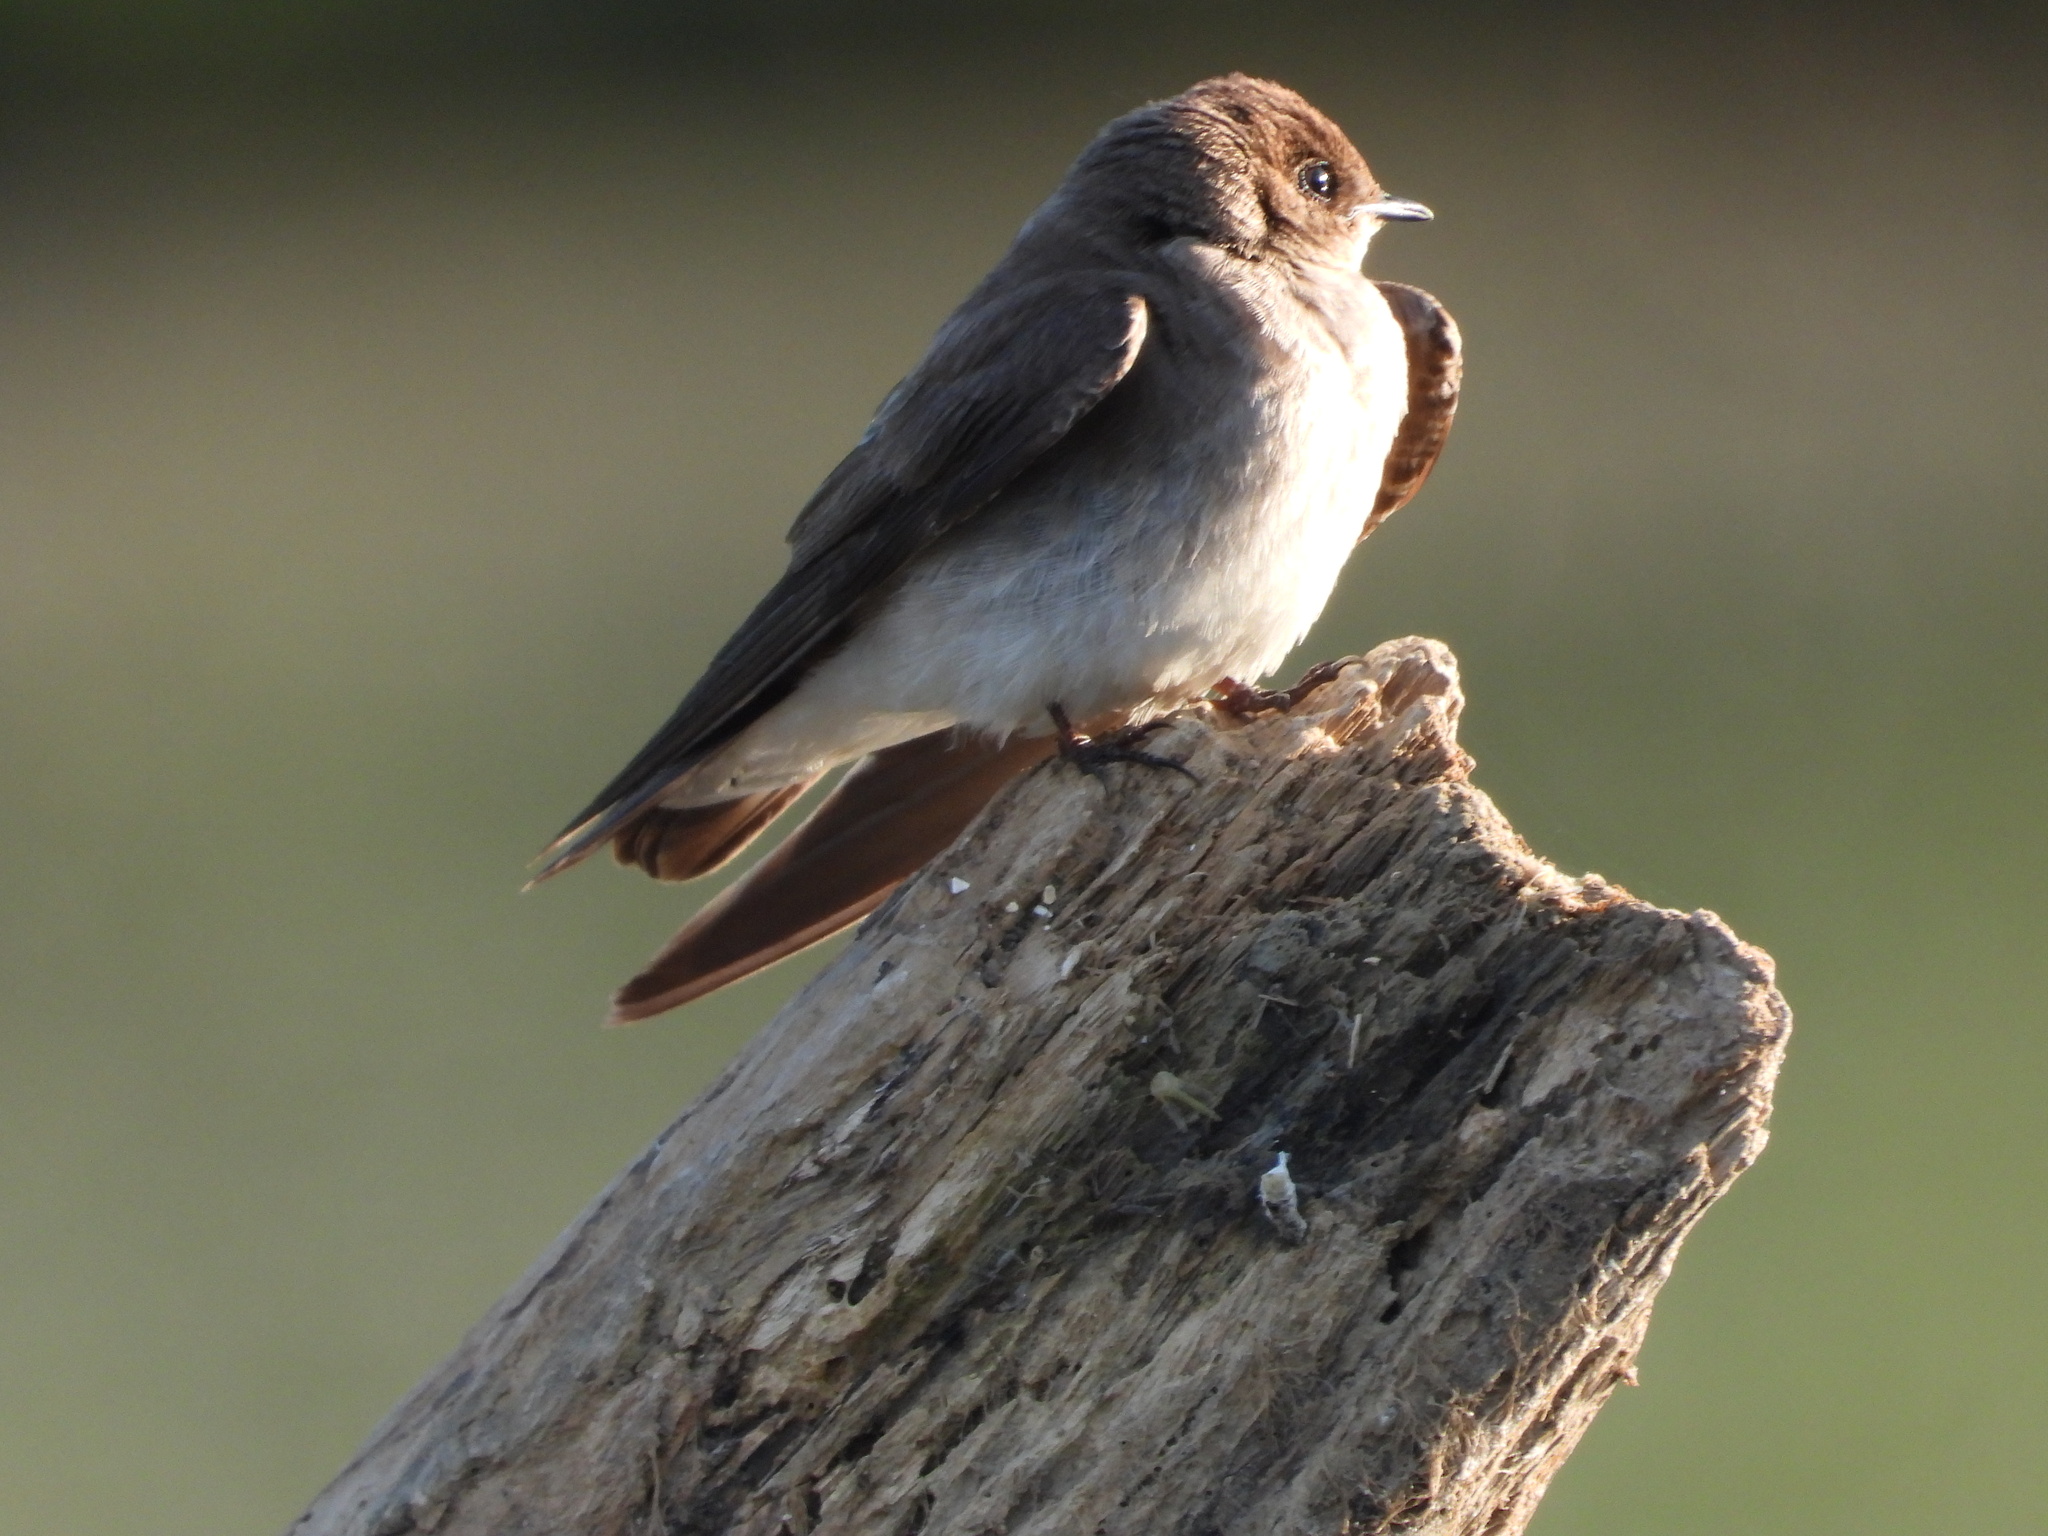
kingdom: Animalia
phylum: Chordata
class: Aves
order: Passeriformes
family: Hirundinidae
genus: Stelgidopteryx
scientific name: Stelgidopteryx serripennis
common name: Northern rough-winged swallow
